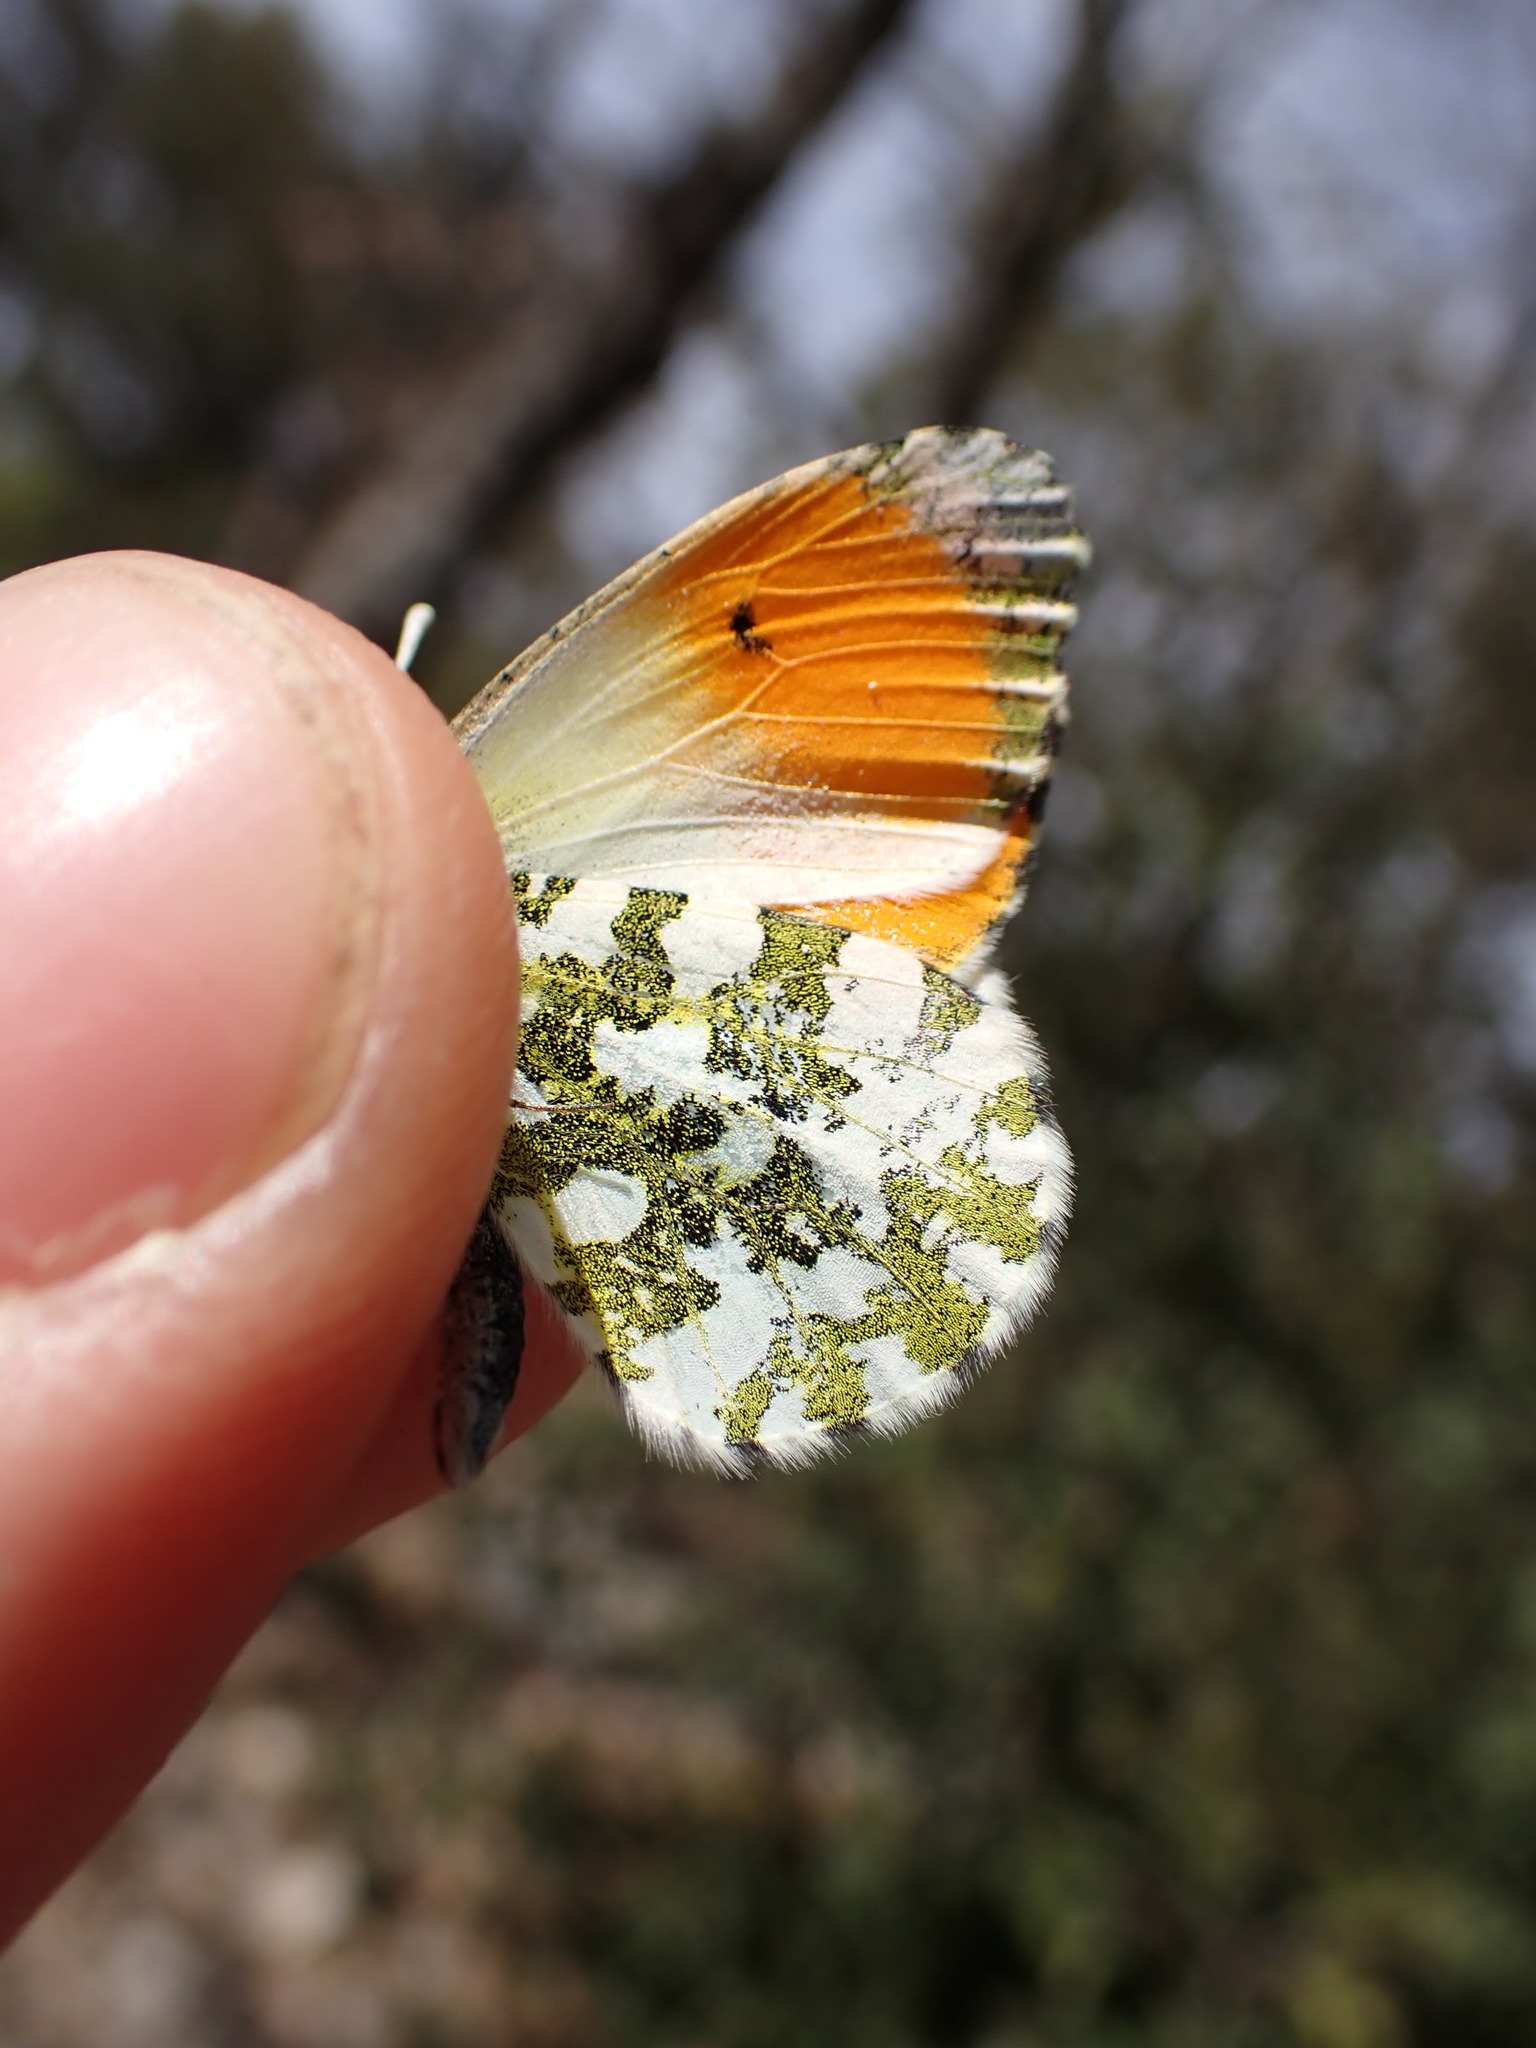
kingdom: Animalia
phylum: Arthropoda
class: Insecta
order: Lepidoptera
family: Pieridae
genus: Anthocharis
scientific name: Anthocharis cardamines
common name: Orange-tip
